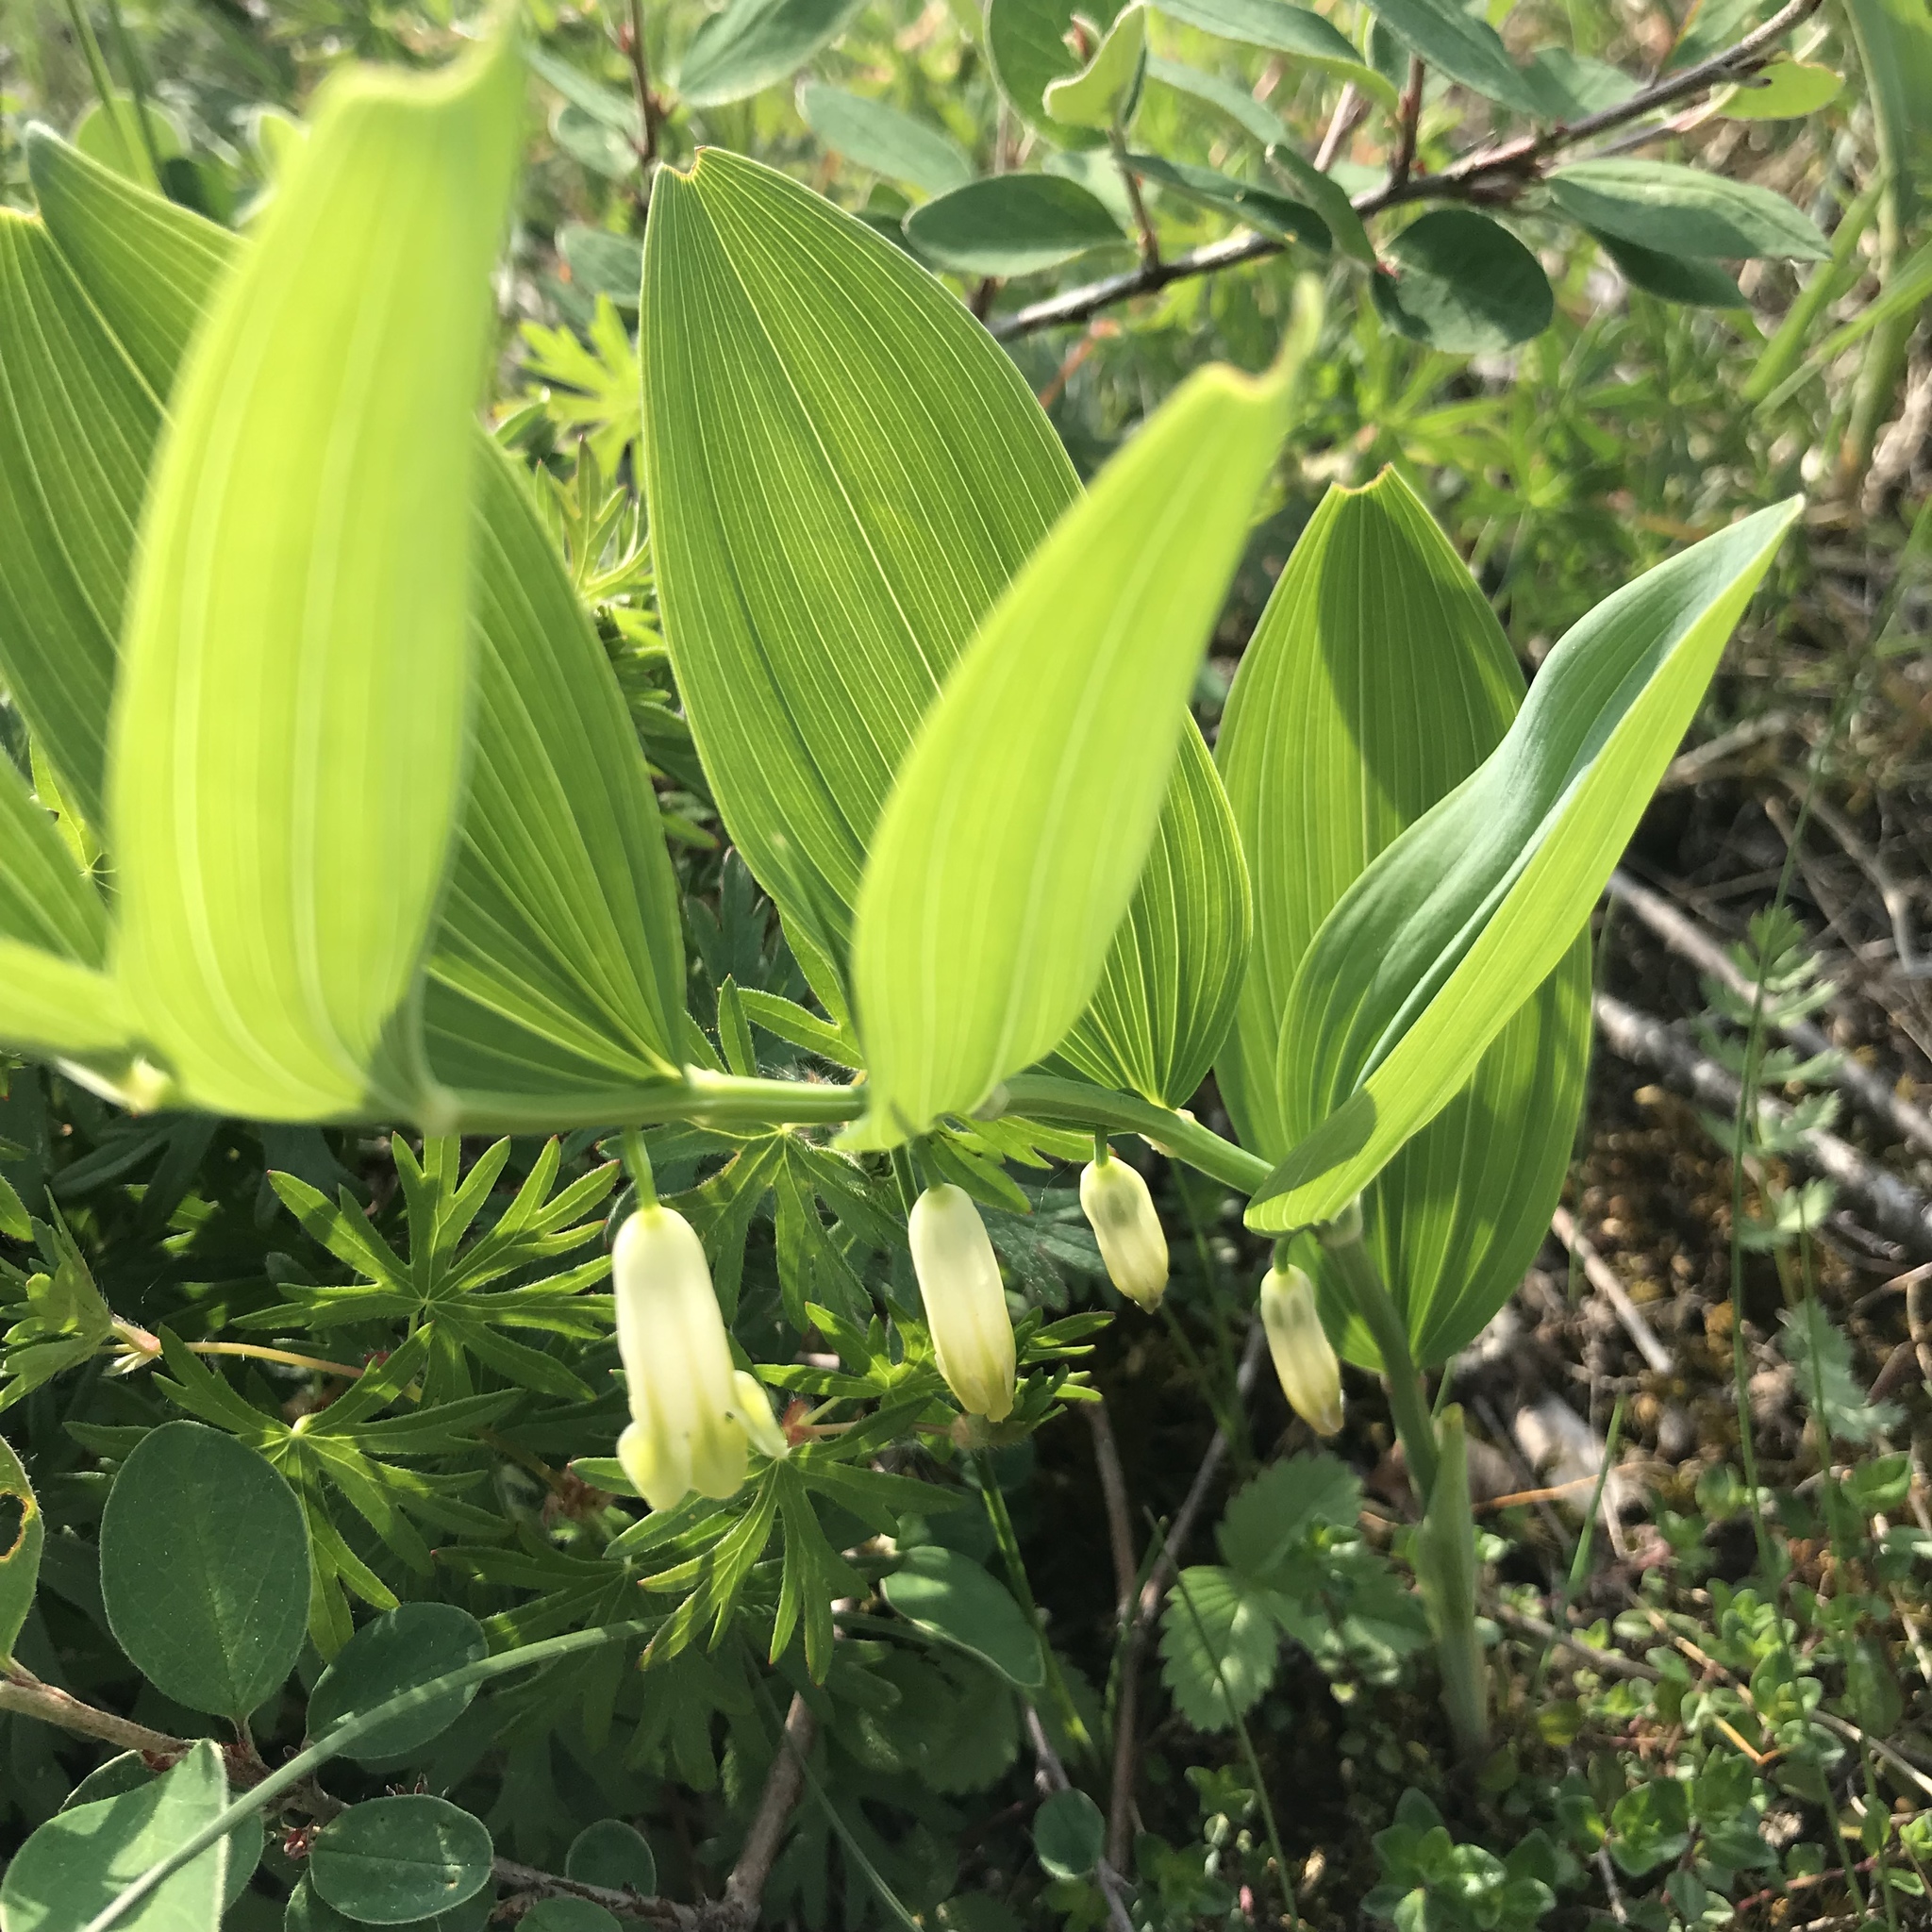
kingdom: Plantae
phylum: Tracheophyta
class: Liliopsida
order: Asparagales
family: Asparagaceae
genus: Polygonatum
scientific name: Polygonatum odoratum
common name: Angular solomon's-seal
